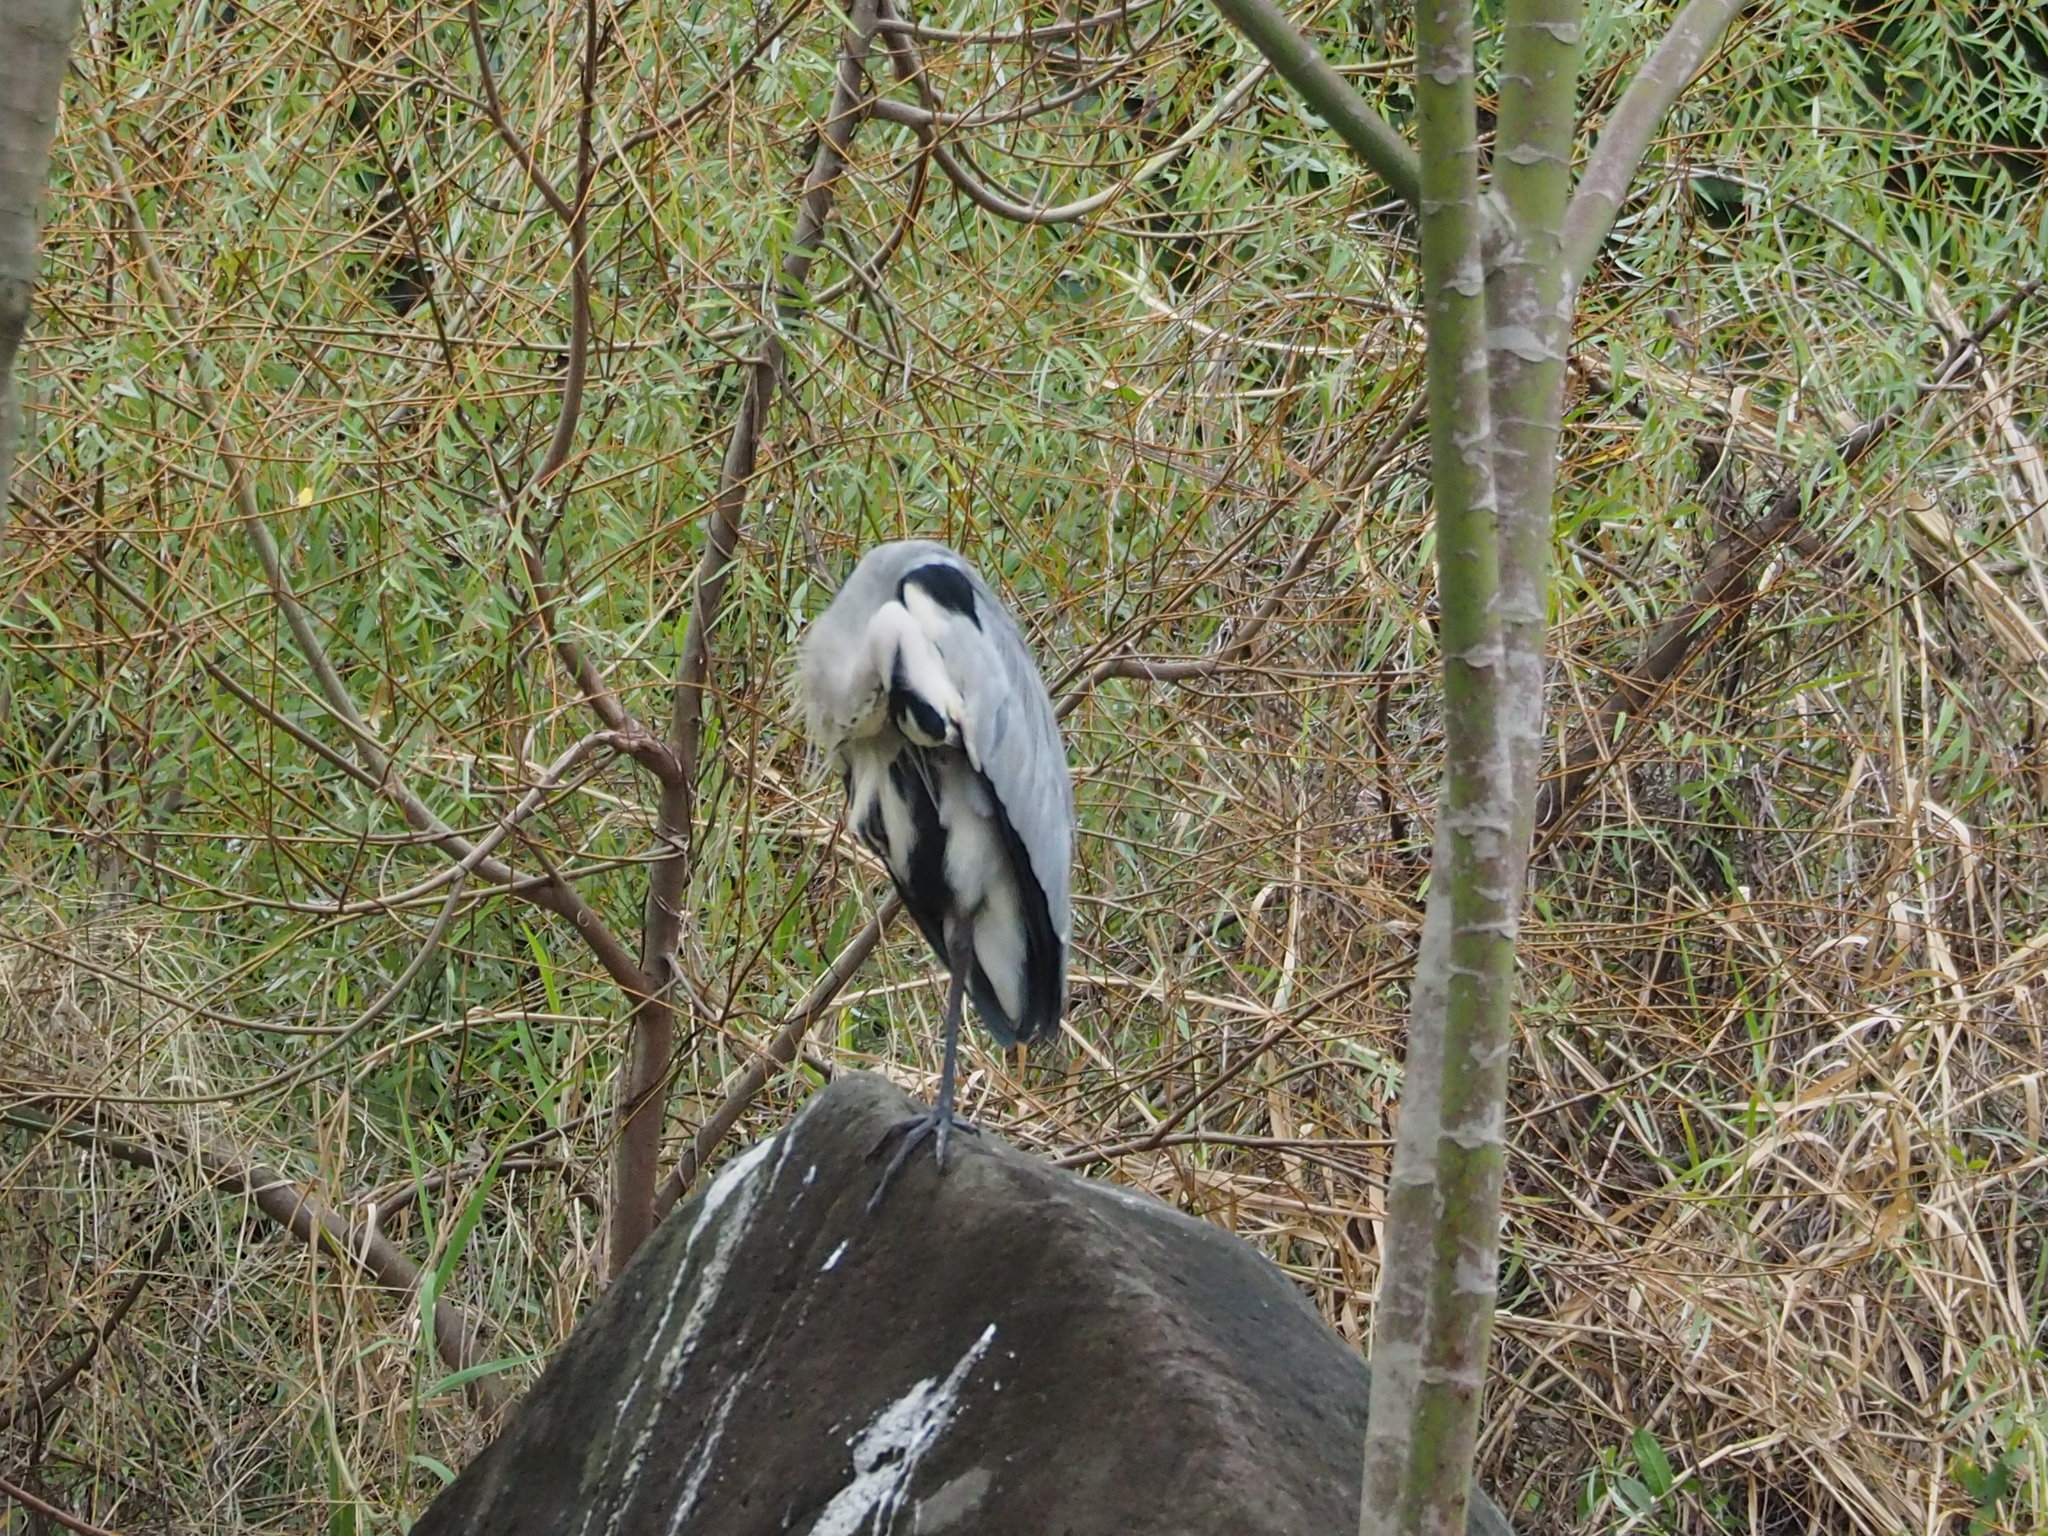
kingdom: Animalia
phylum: Chordata
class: Aves
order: Pelecaniformes
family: Ardeidae
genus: Ardea
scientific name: Ardea cinerea
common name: Grey heron
